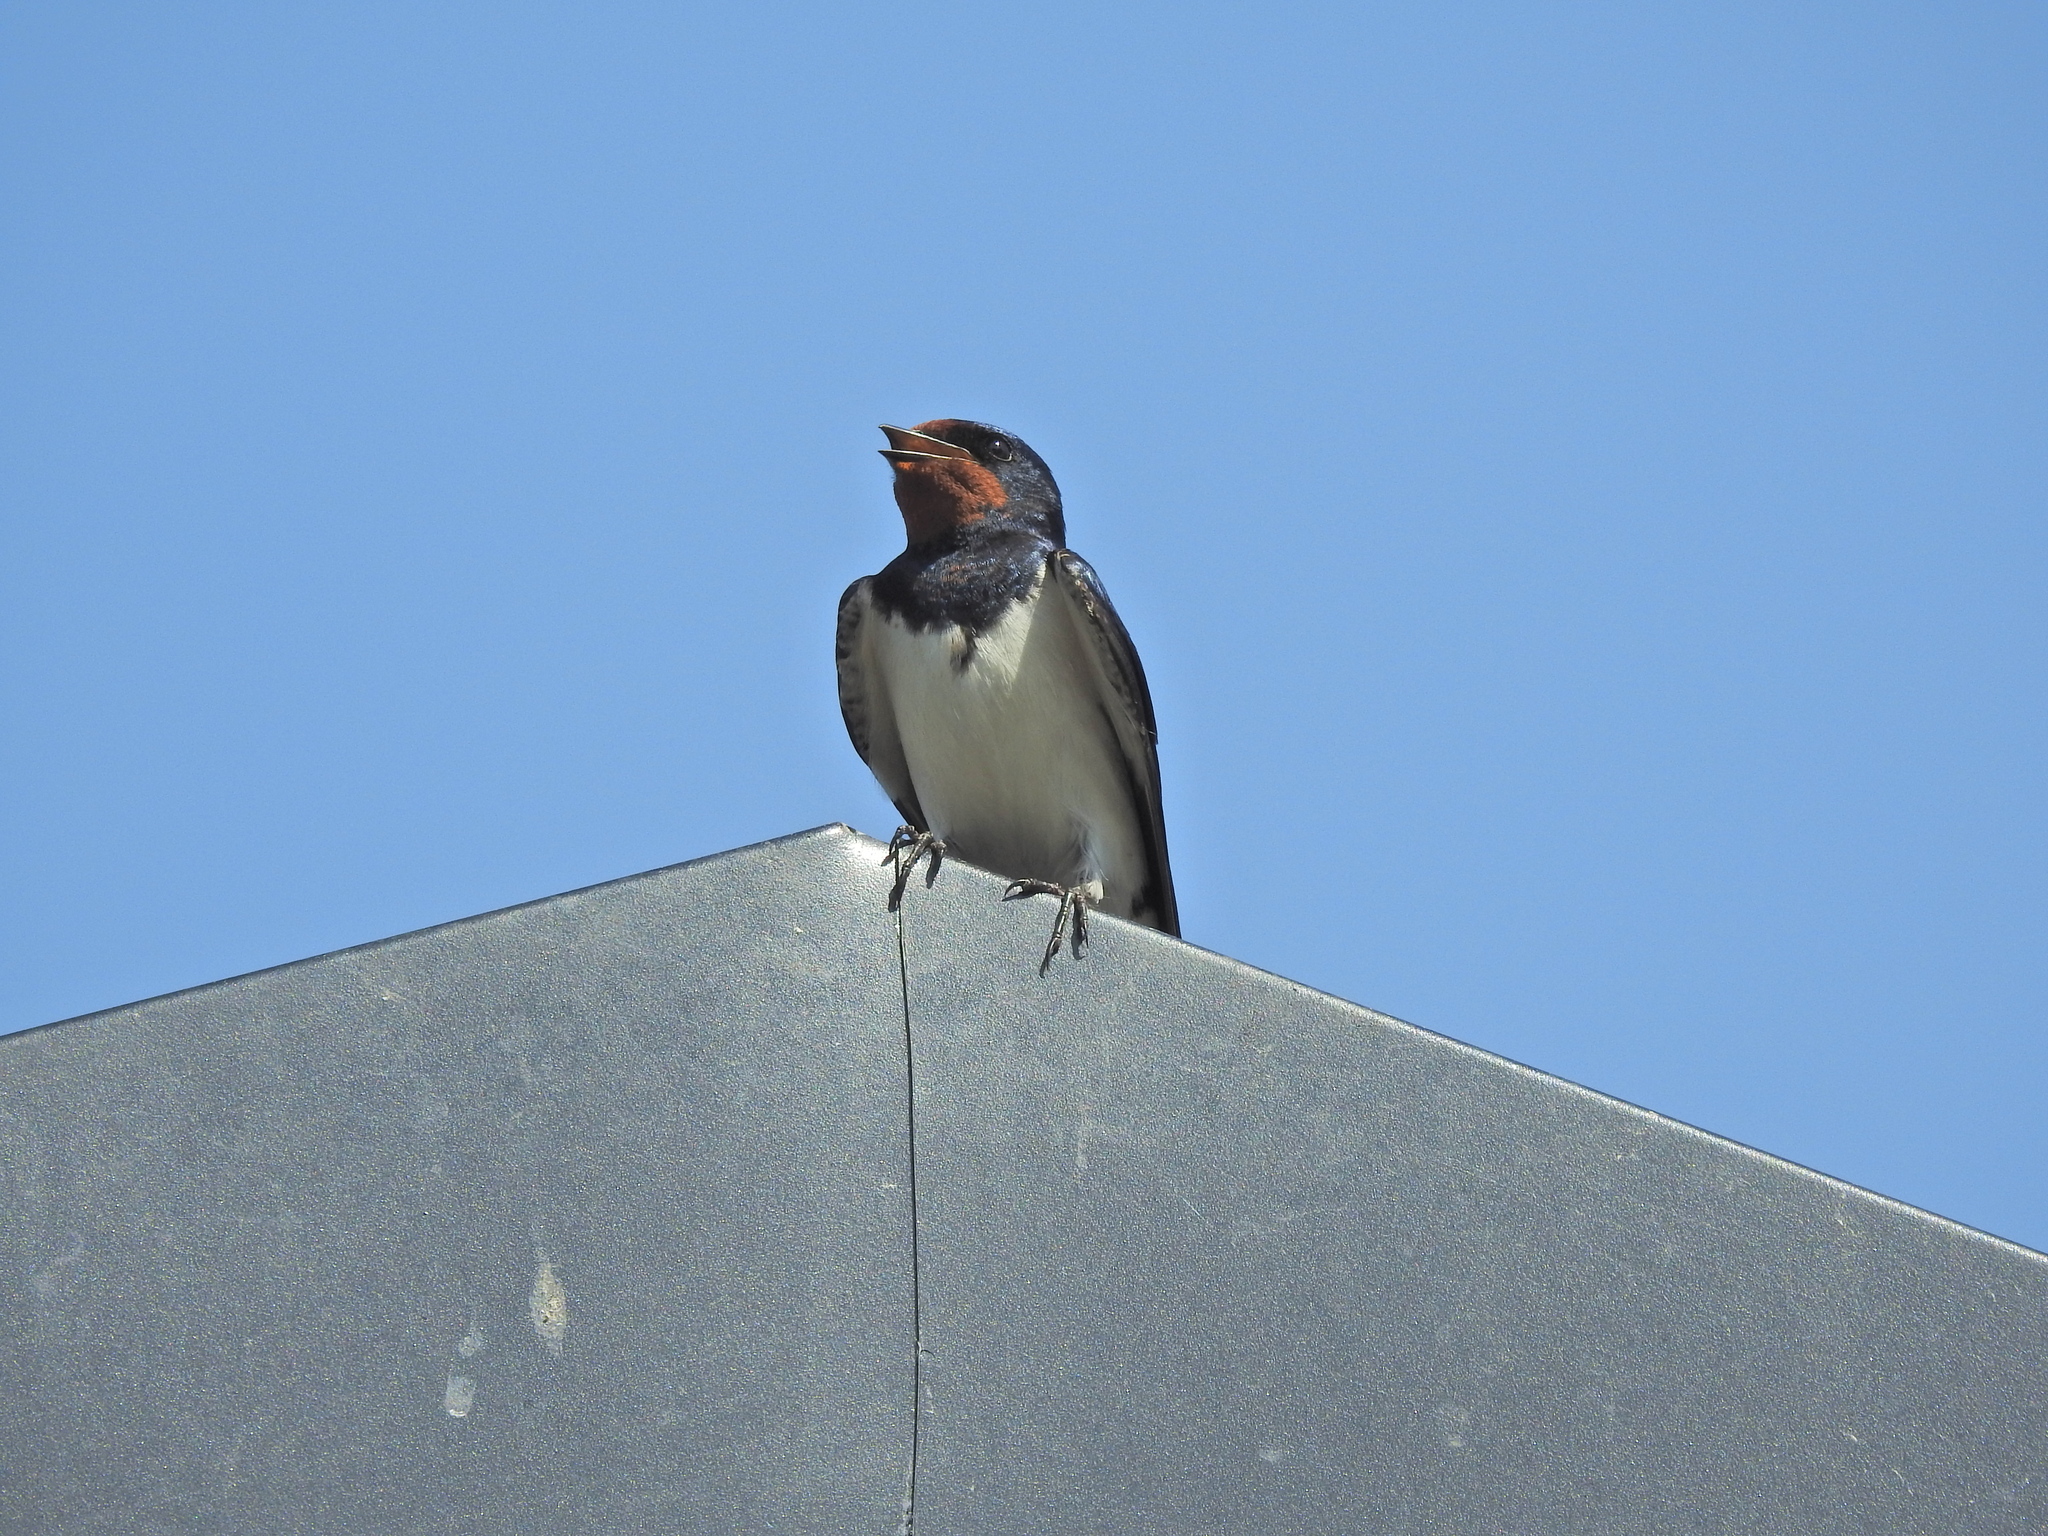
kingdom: Animalia
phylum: Chordata
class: Aves
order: Passeriformes
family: Hirundinidae
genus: Hirundo
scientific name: Hirundo rustica
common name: Barn swallow
